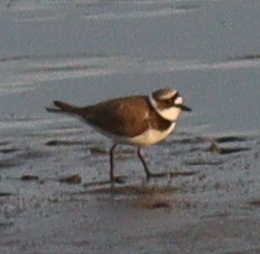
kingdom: Animalia
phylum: Chordata
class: Aves
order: Charadriiformes
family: Charadriidae
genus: Charadrius
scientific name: Charadrius dubius
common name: Little ringed plover
